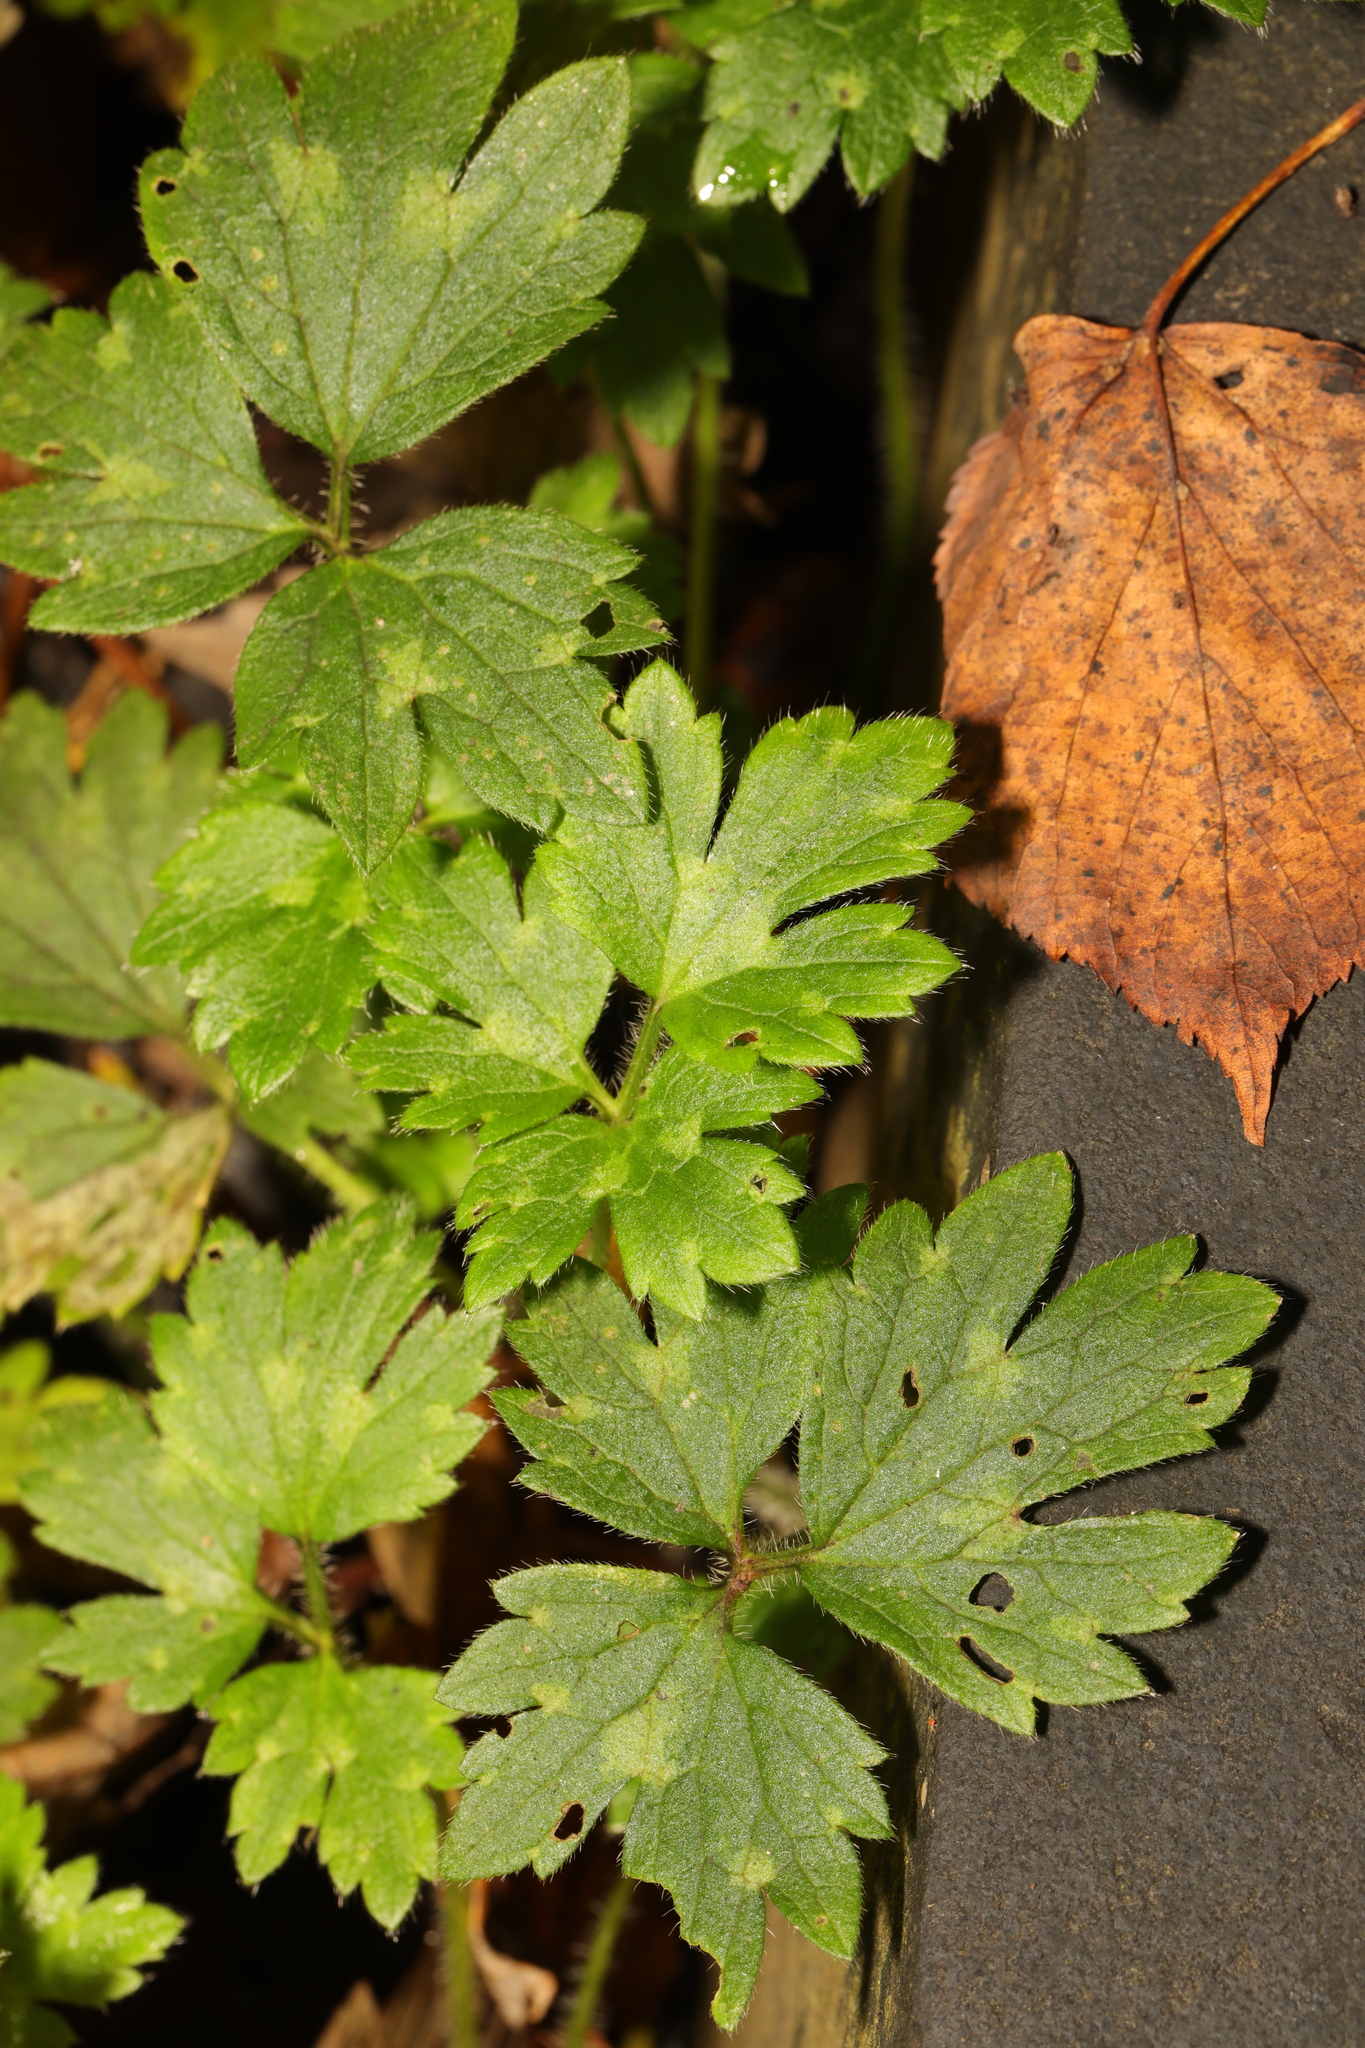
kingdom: Plantae
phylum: Tracheophyta
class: Magnoliopsida
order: Ranunculales
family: Ranunculaceae
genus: Ranunculus
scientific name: Ranunculus repens
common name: Creeping buttercup
